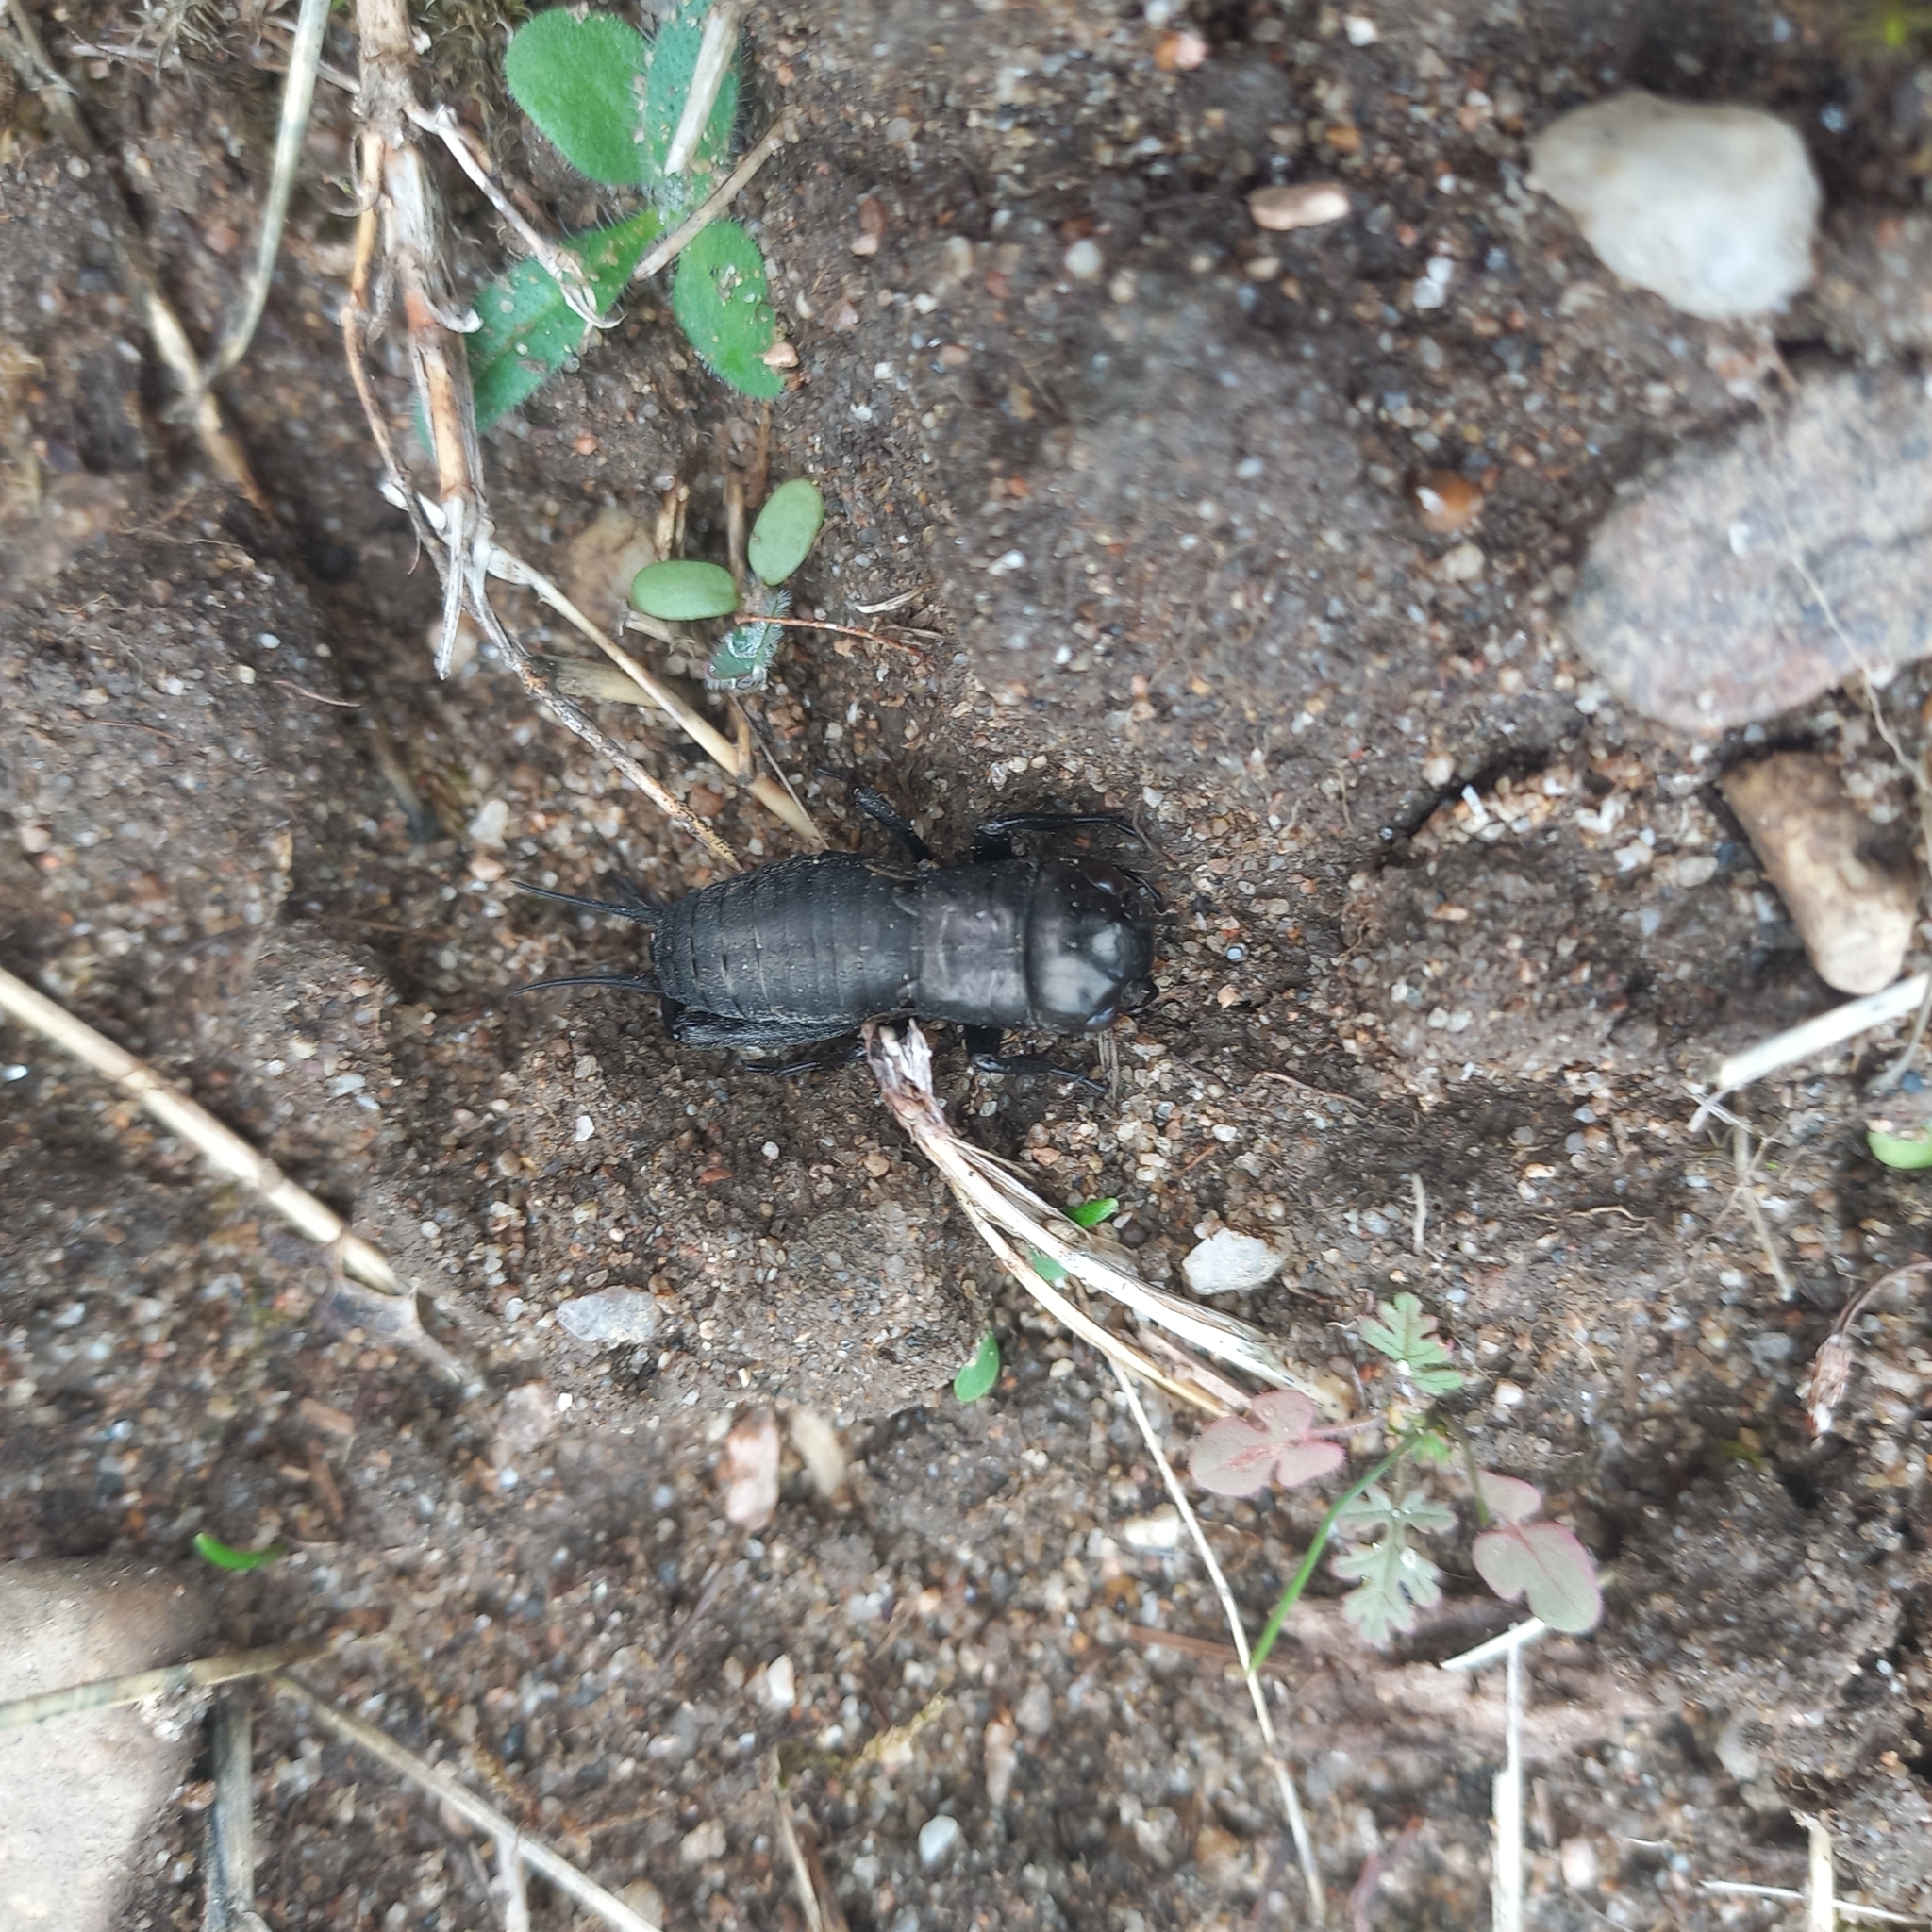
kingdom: Animalia
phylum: Arthropoda
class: Insecta
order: Orthoptera
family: Gryllidae
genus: Gryllus
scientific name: Gryllus campestris
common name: Field cricket
